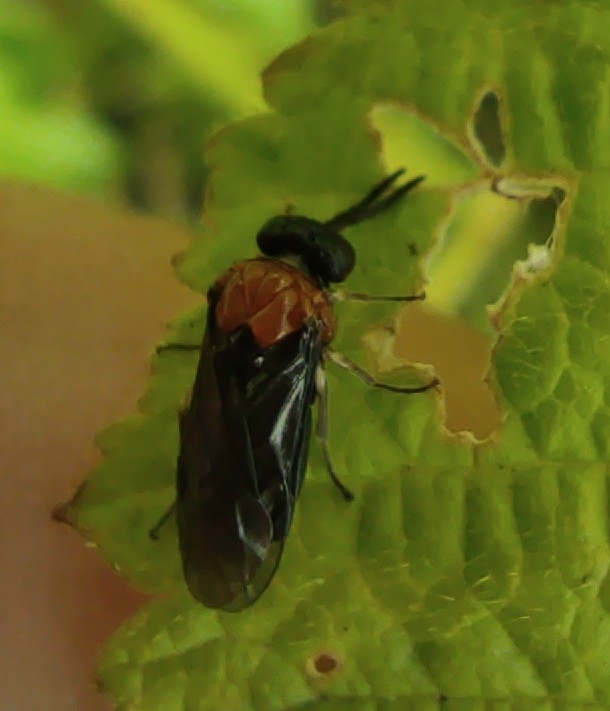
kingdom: Animalia
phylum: Arthropoda
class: Insecta
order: Hymenoptera
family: Tenthredinidae
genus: Eutomostethus
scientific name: Eutomostethus ephippium
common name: Tenthredid wasp
